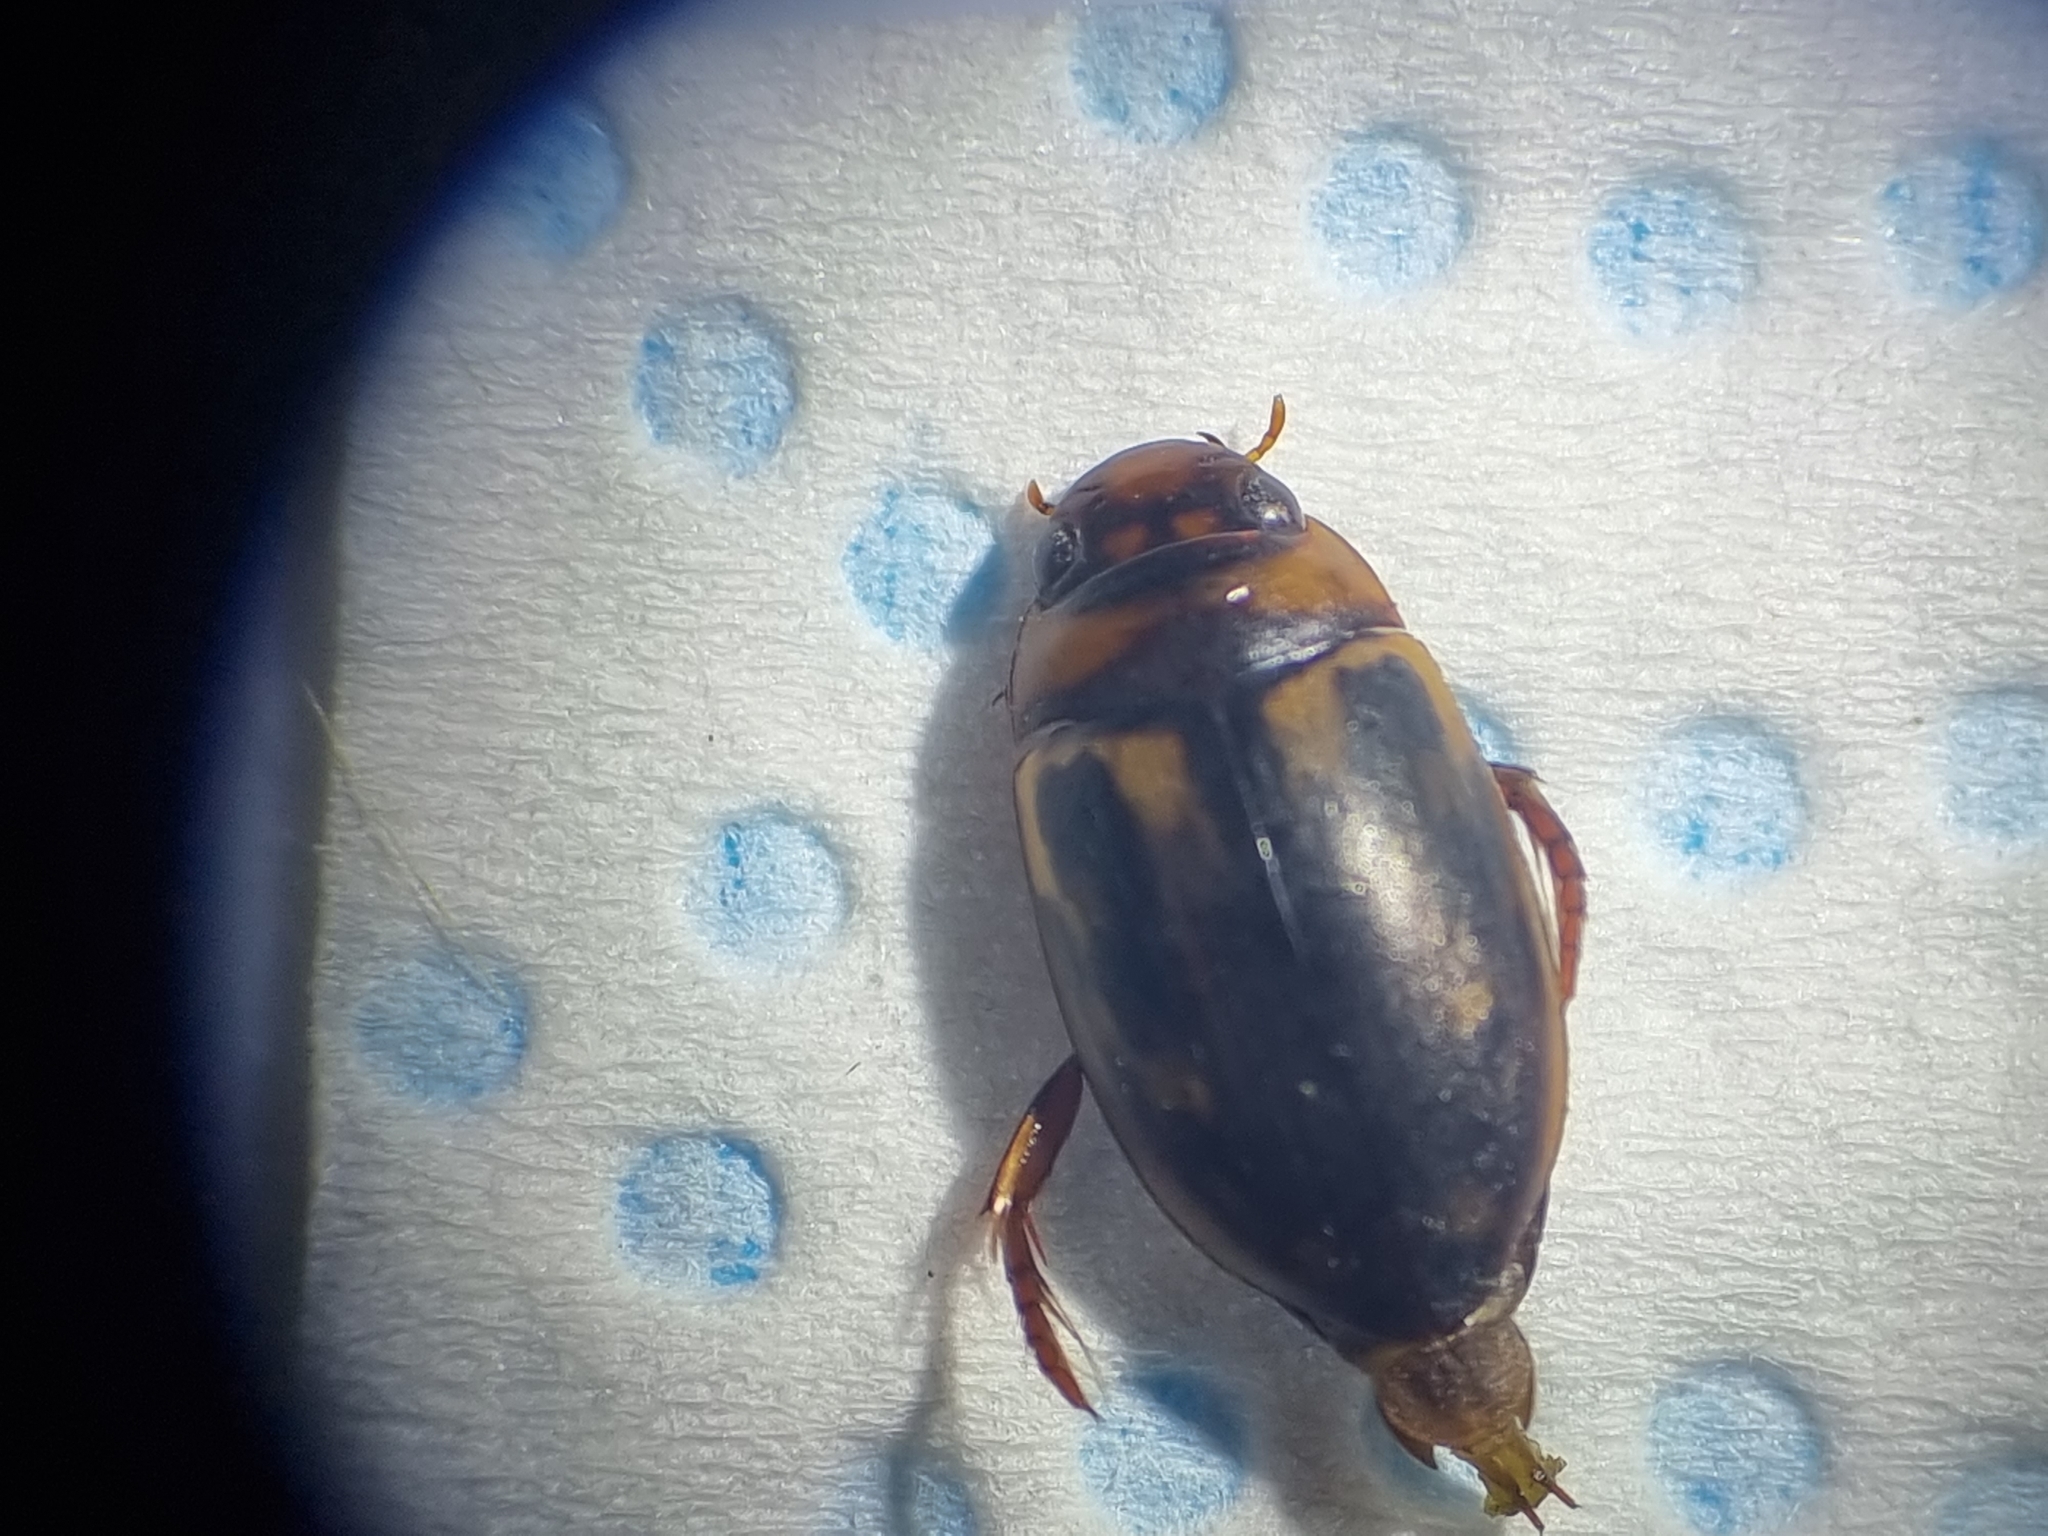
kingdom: Animalia
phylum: Arthropoda
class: Insecta
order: Coleoptera
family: Dytiscidae
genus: Platambus
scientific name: Platambus maculatus
